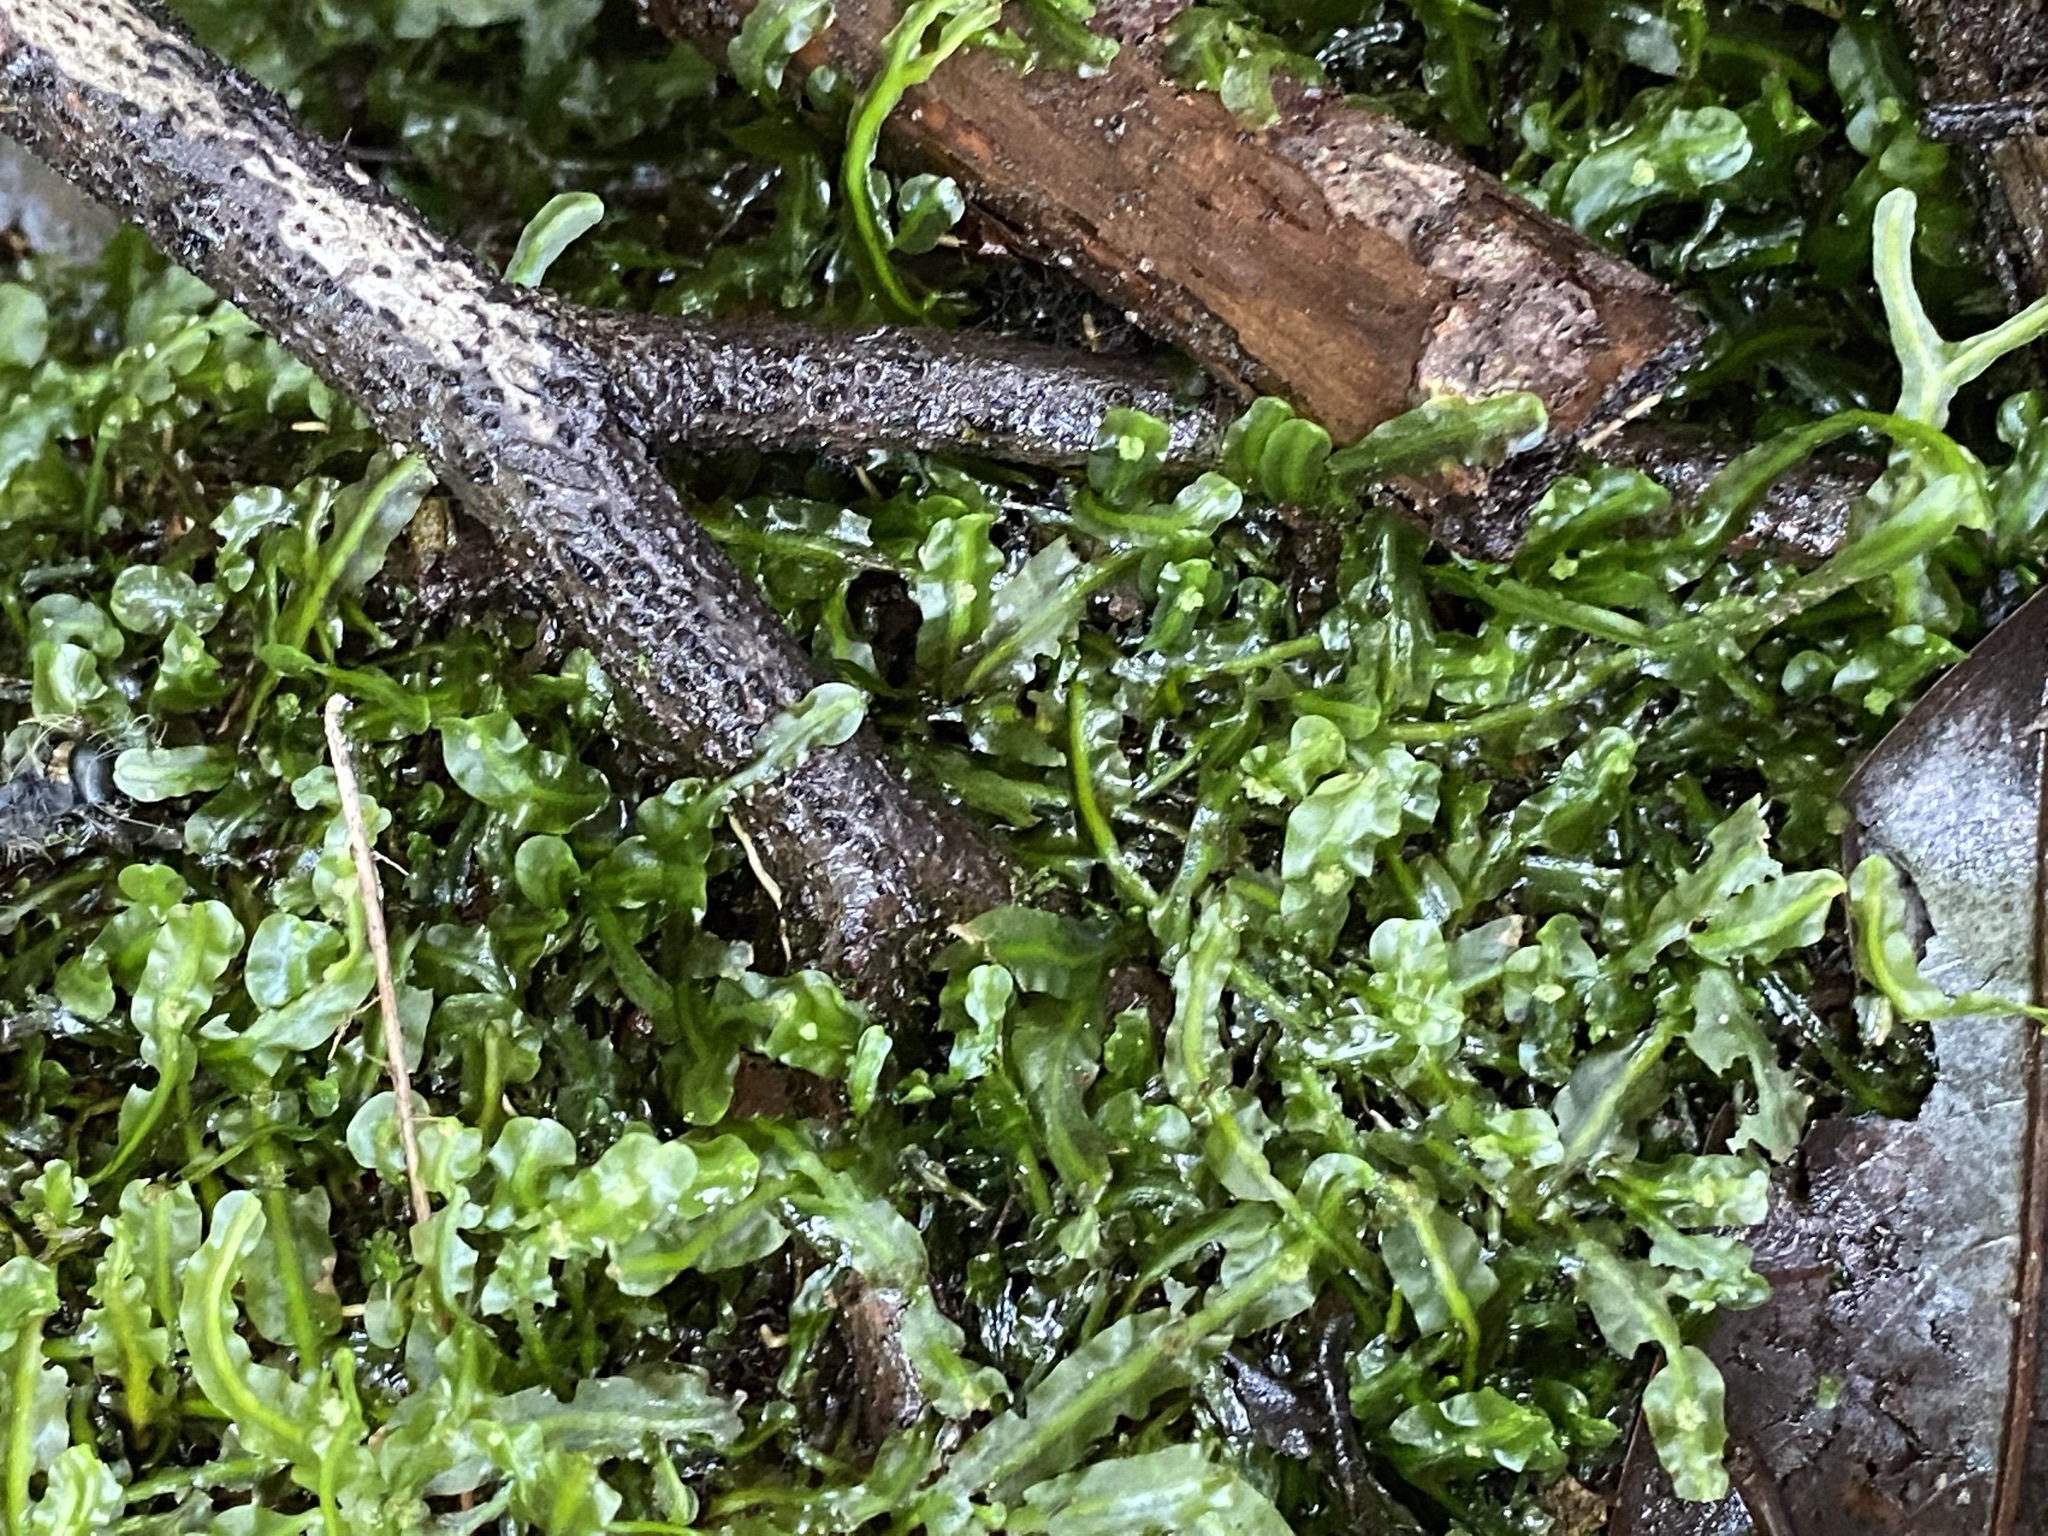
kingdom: Plantae
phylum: Marchantiophyta
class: Jungermanniopsida
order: Pallaviciniales
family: Pallaviciniaceae
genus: Pallavicinia
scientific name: Pallavicinia lyellii
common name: Veilwort
